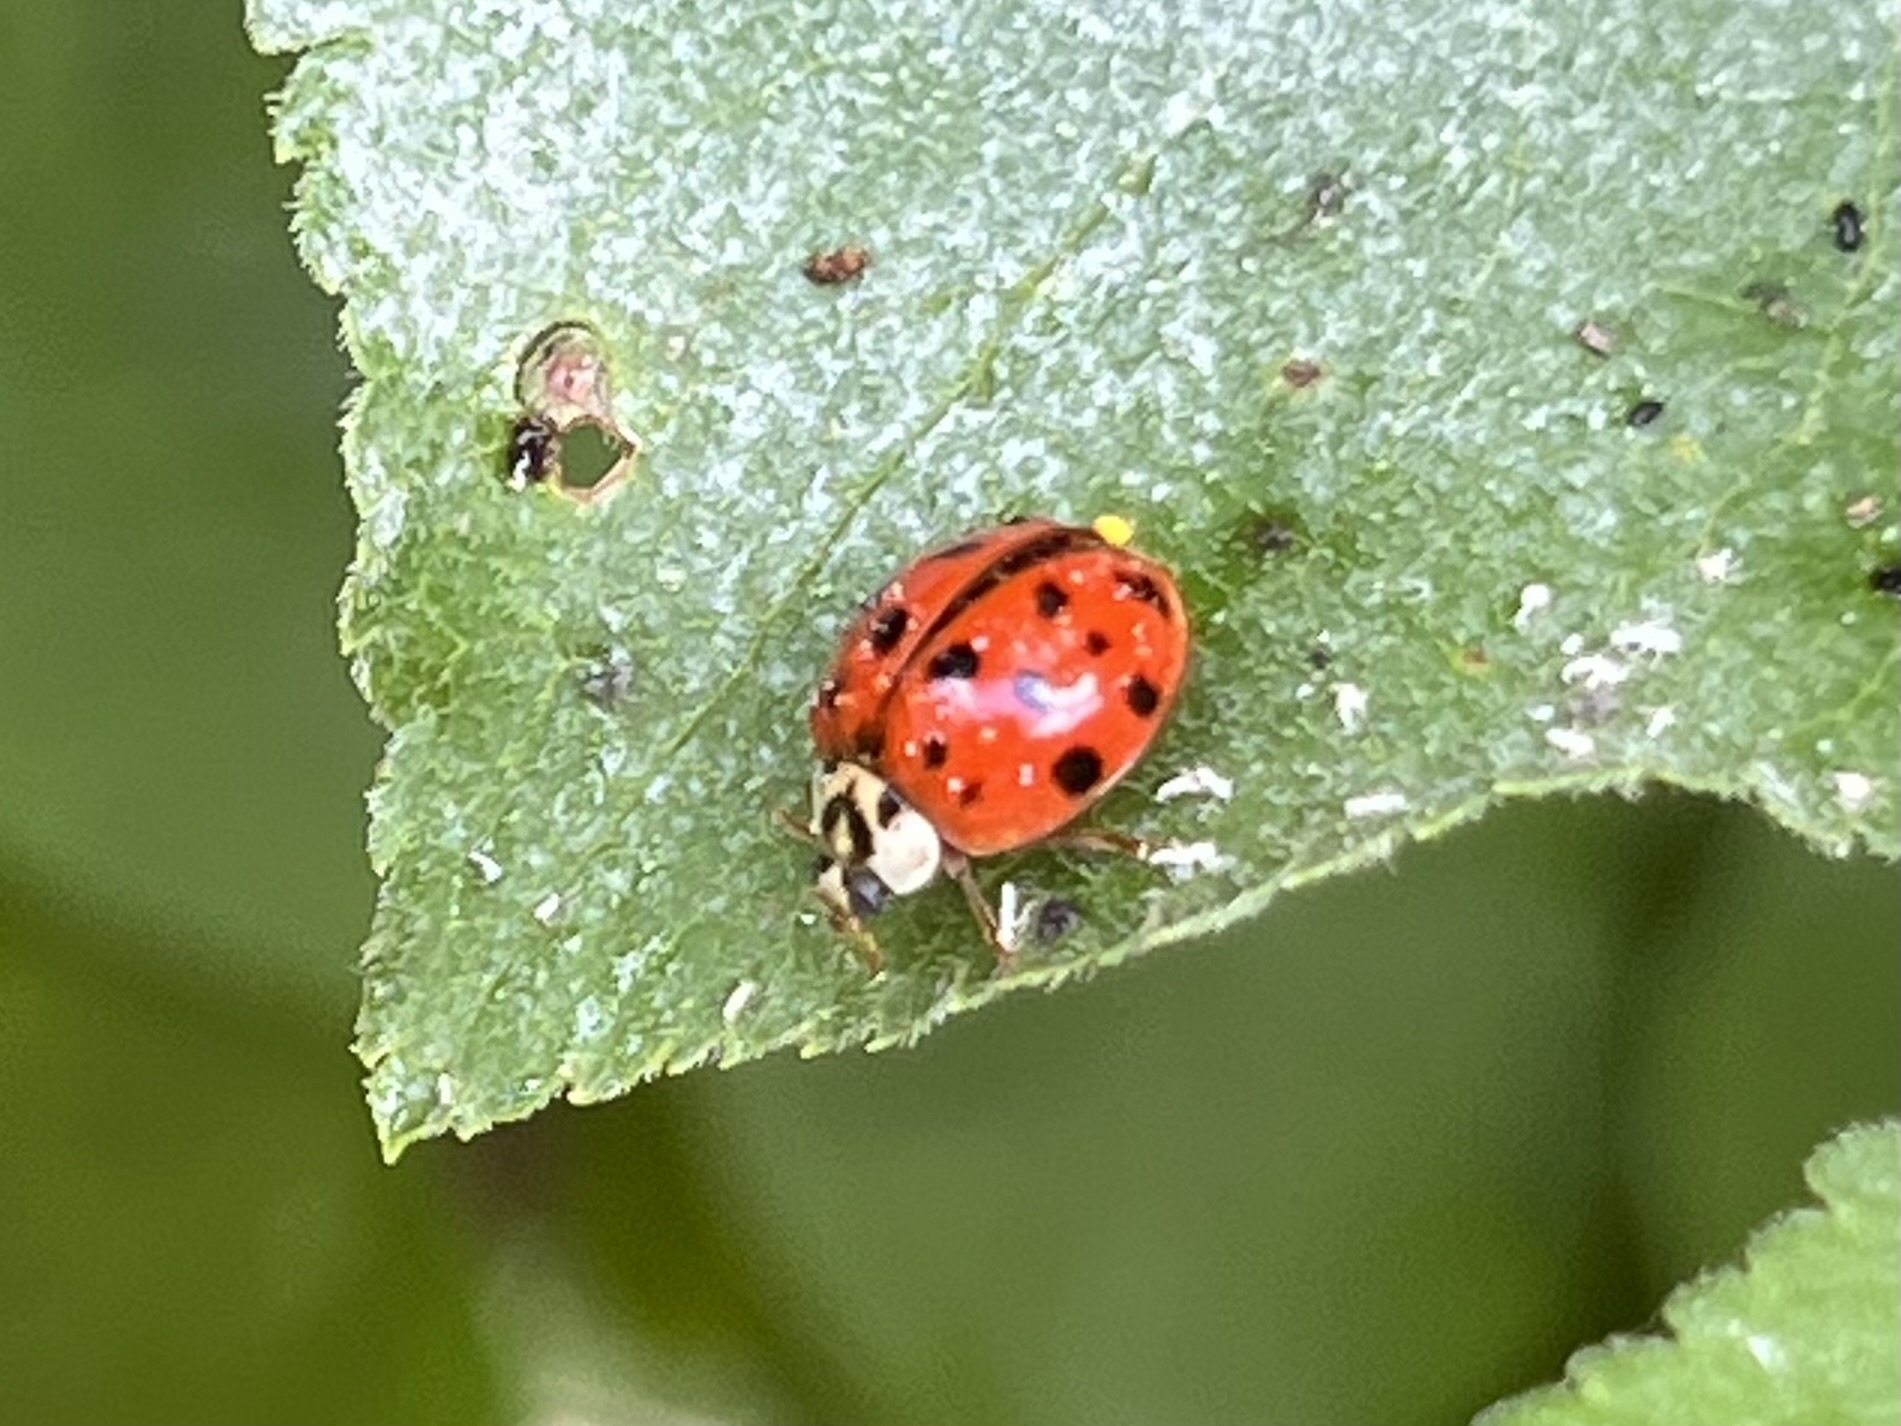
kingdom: Animalia
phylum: Arthropoda
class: Insecta
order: Coleoptera
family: Coccinellidae
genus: Harmonia
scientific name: Harmonia axyridis
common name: Harlequin ladybird
